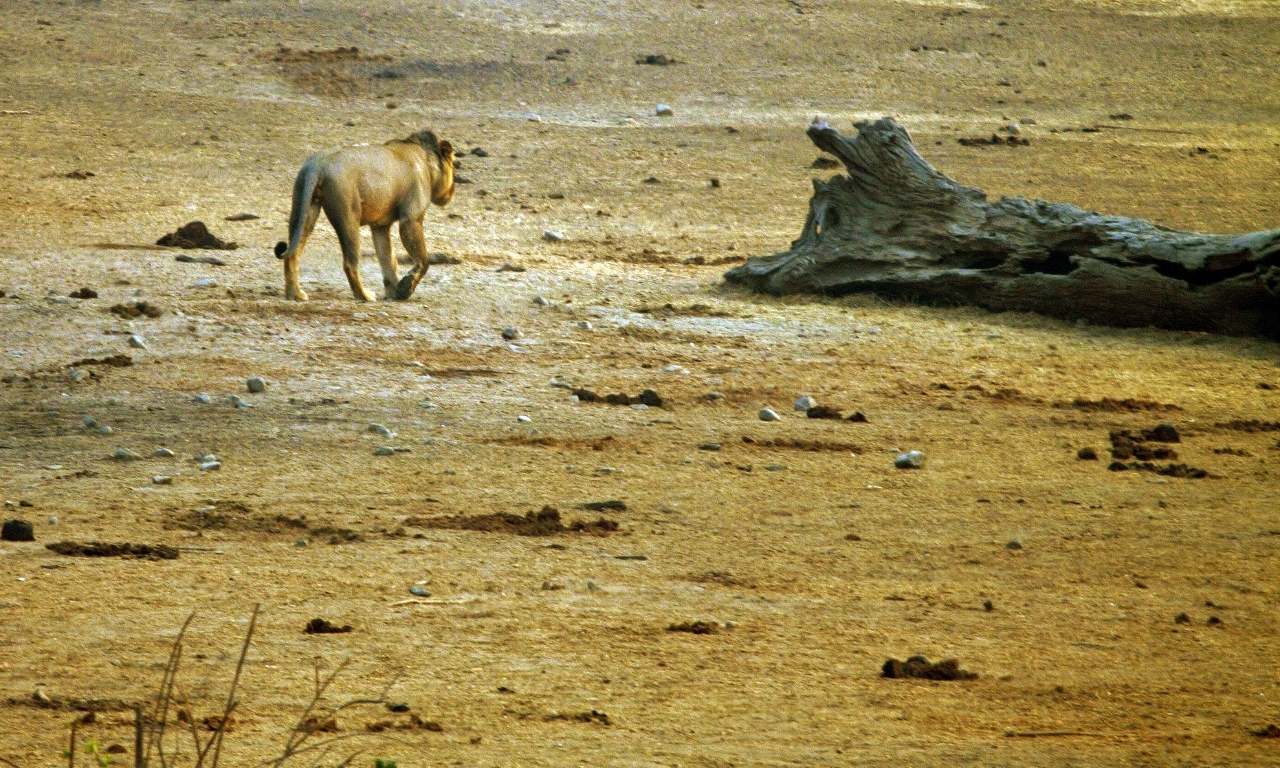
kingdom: Animalia
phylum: Chordata
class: Mammalia
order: Carnivora
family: Felidae
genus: Panthera
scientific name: Panthera leo
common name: Lion
